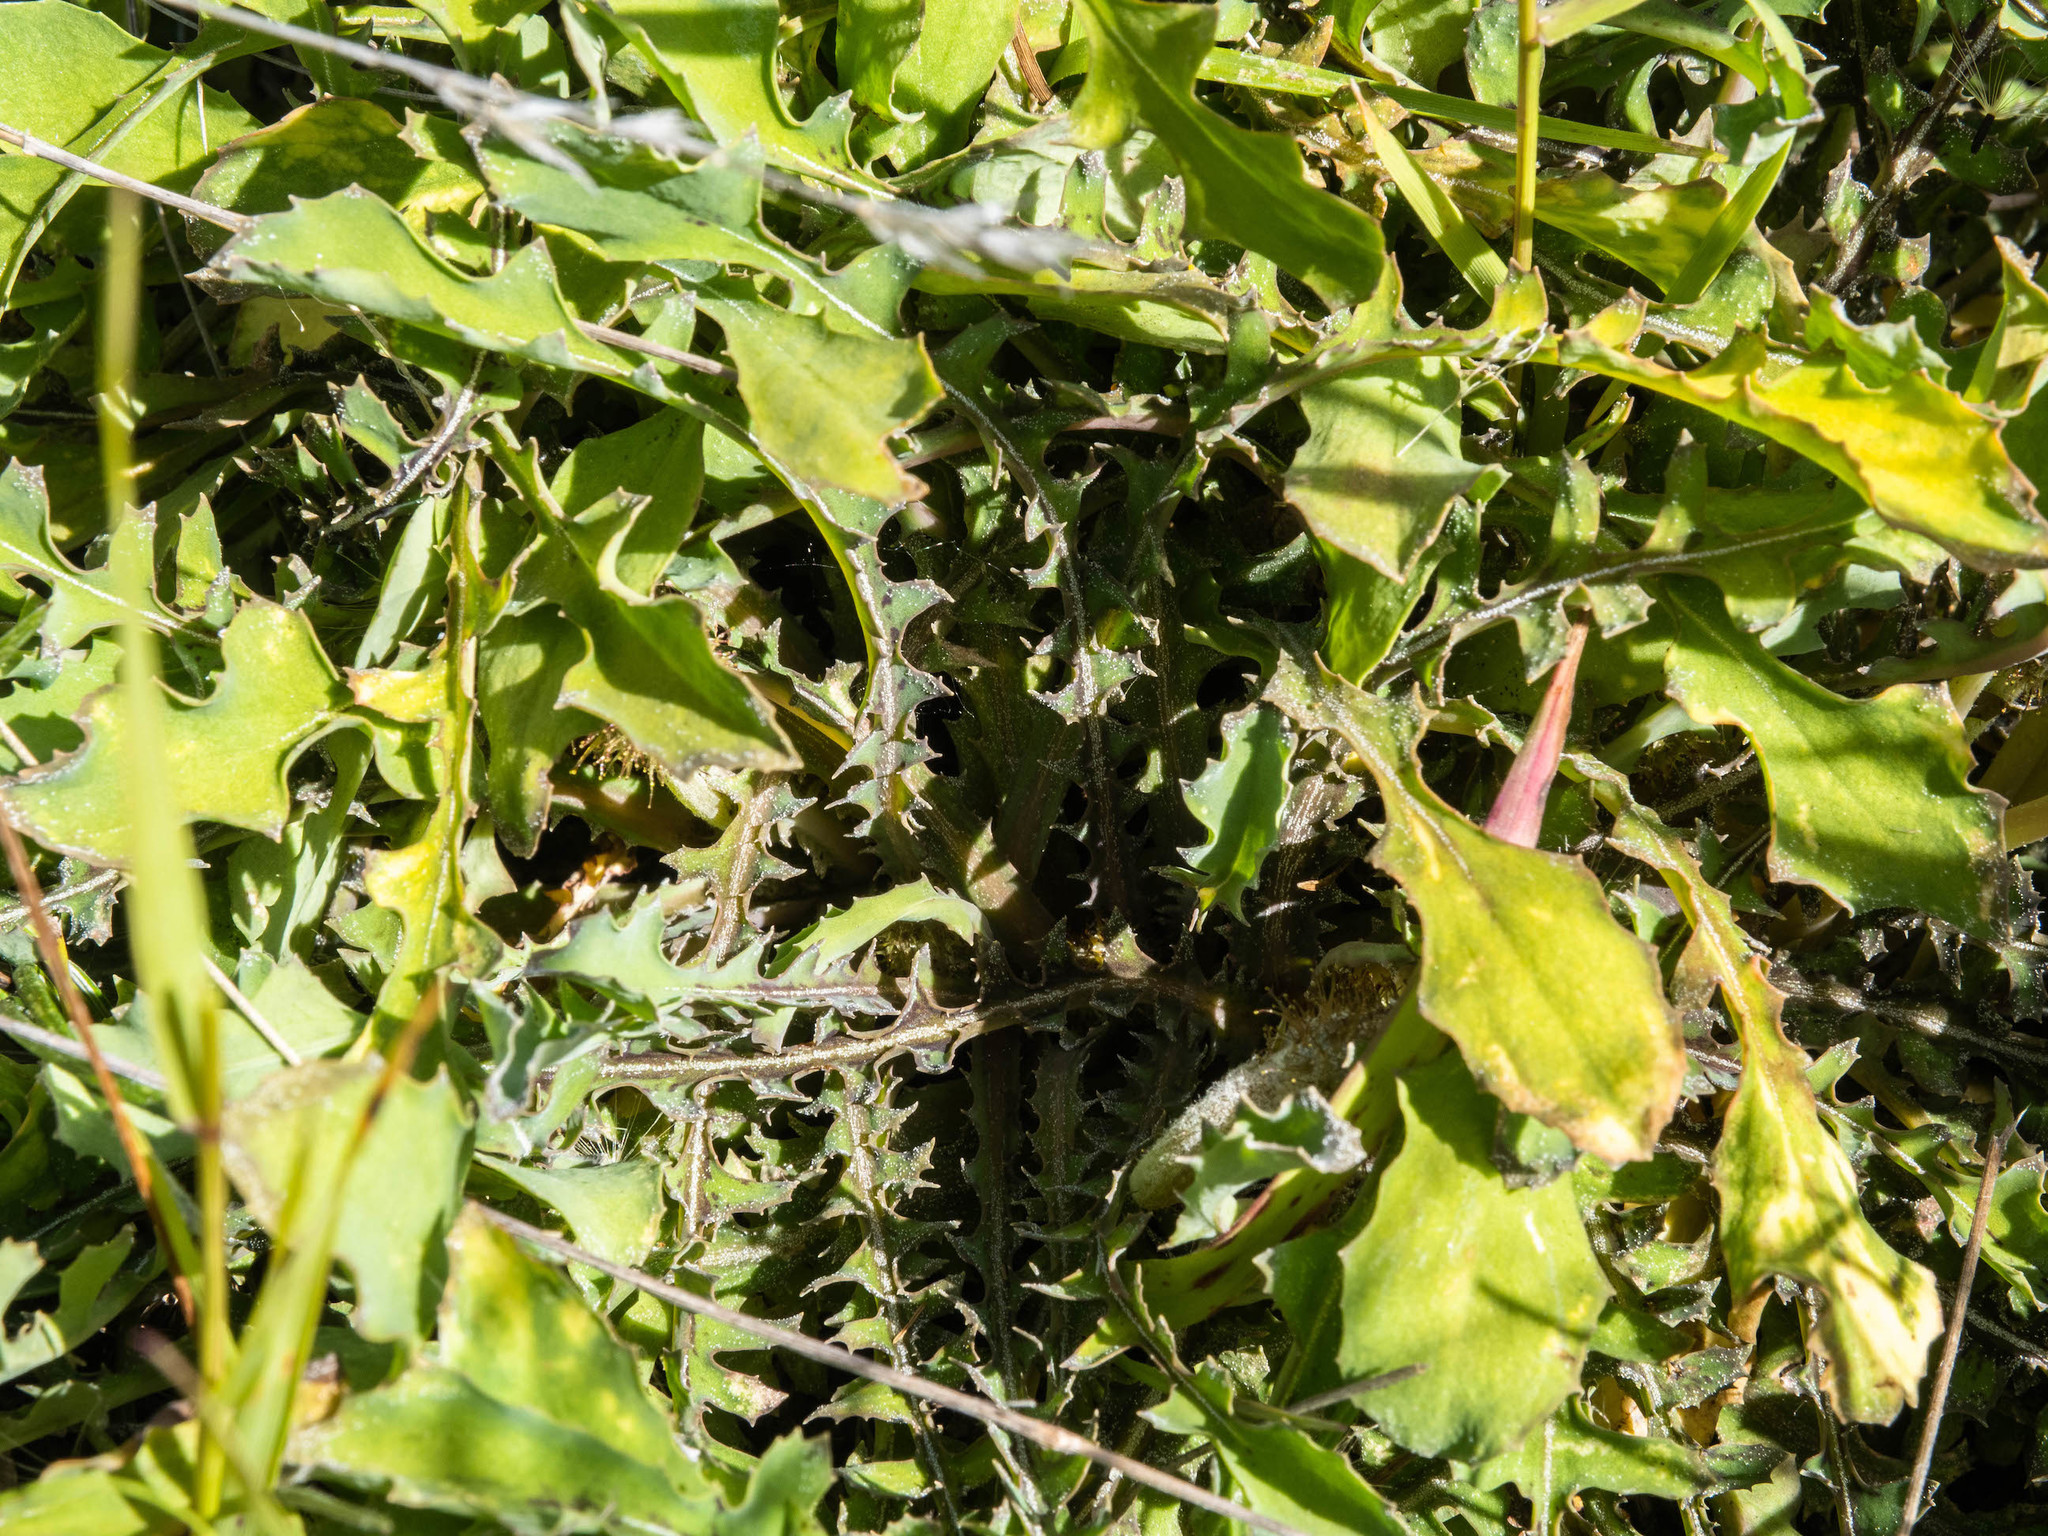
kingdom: Plantae
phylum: Tracheophyta
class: Magnoliopsida
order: Asterales
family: Asteraceae
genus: Sonchus
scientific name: Sonchus novae-zelandiae
